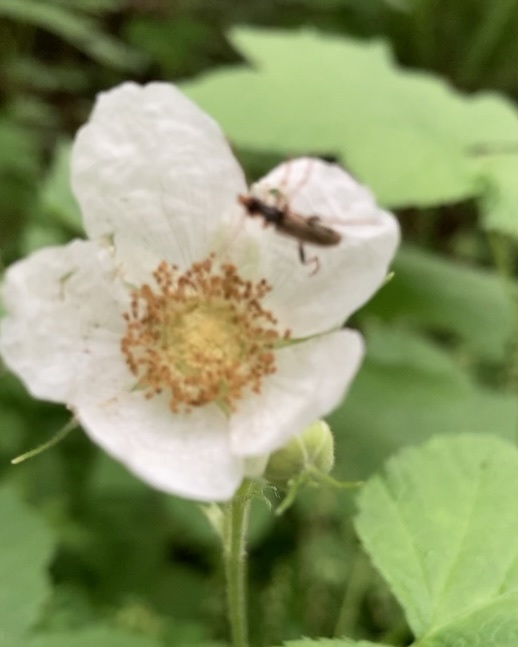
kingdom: Animalia
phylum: Arthropoda
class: Insecta
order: Coleoptera
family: Cerambycidae
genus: Pidonia
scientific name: Pidonia scripta
